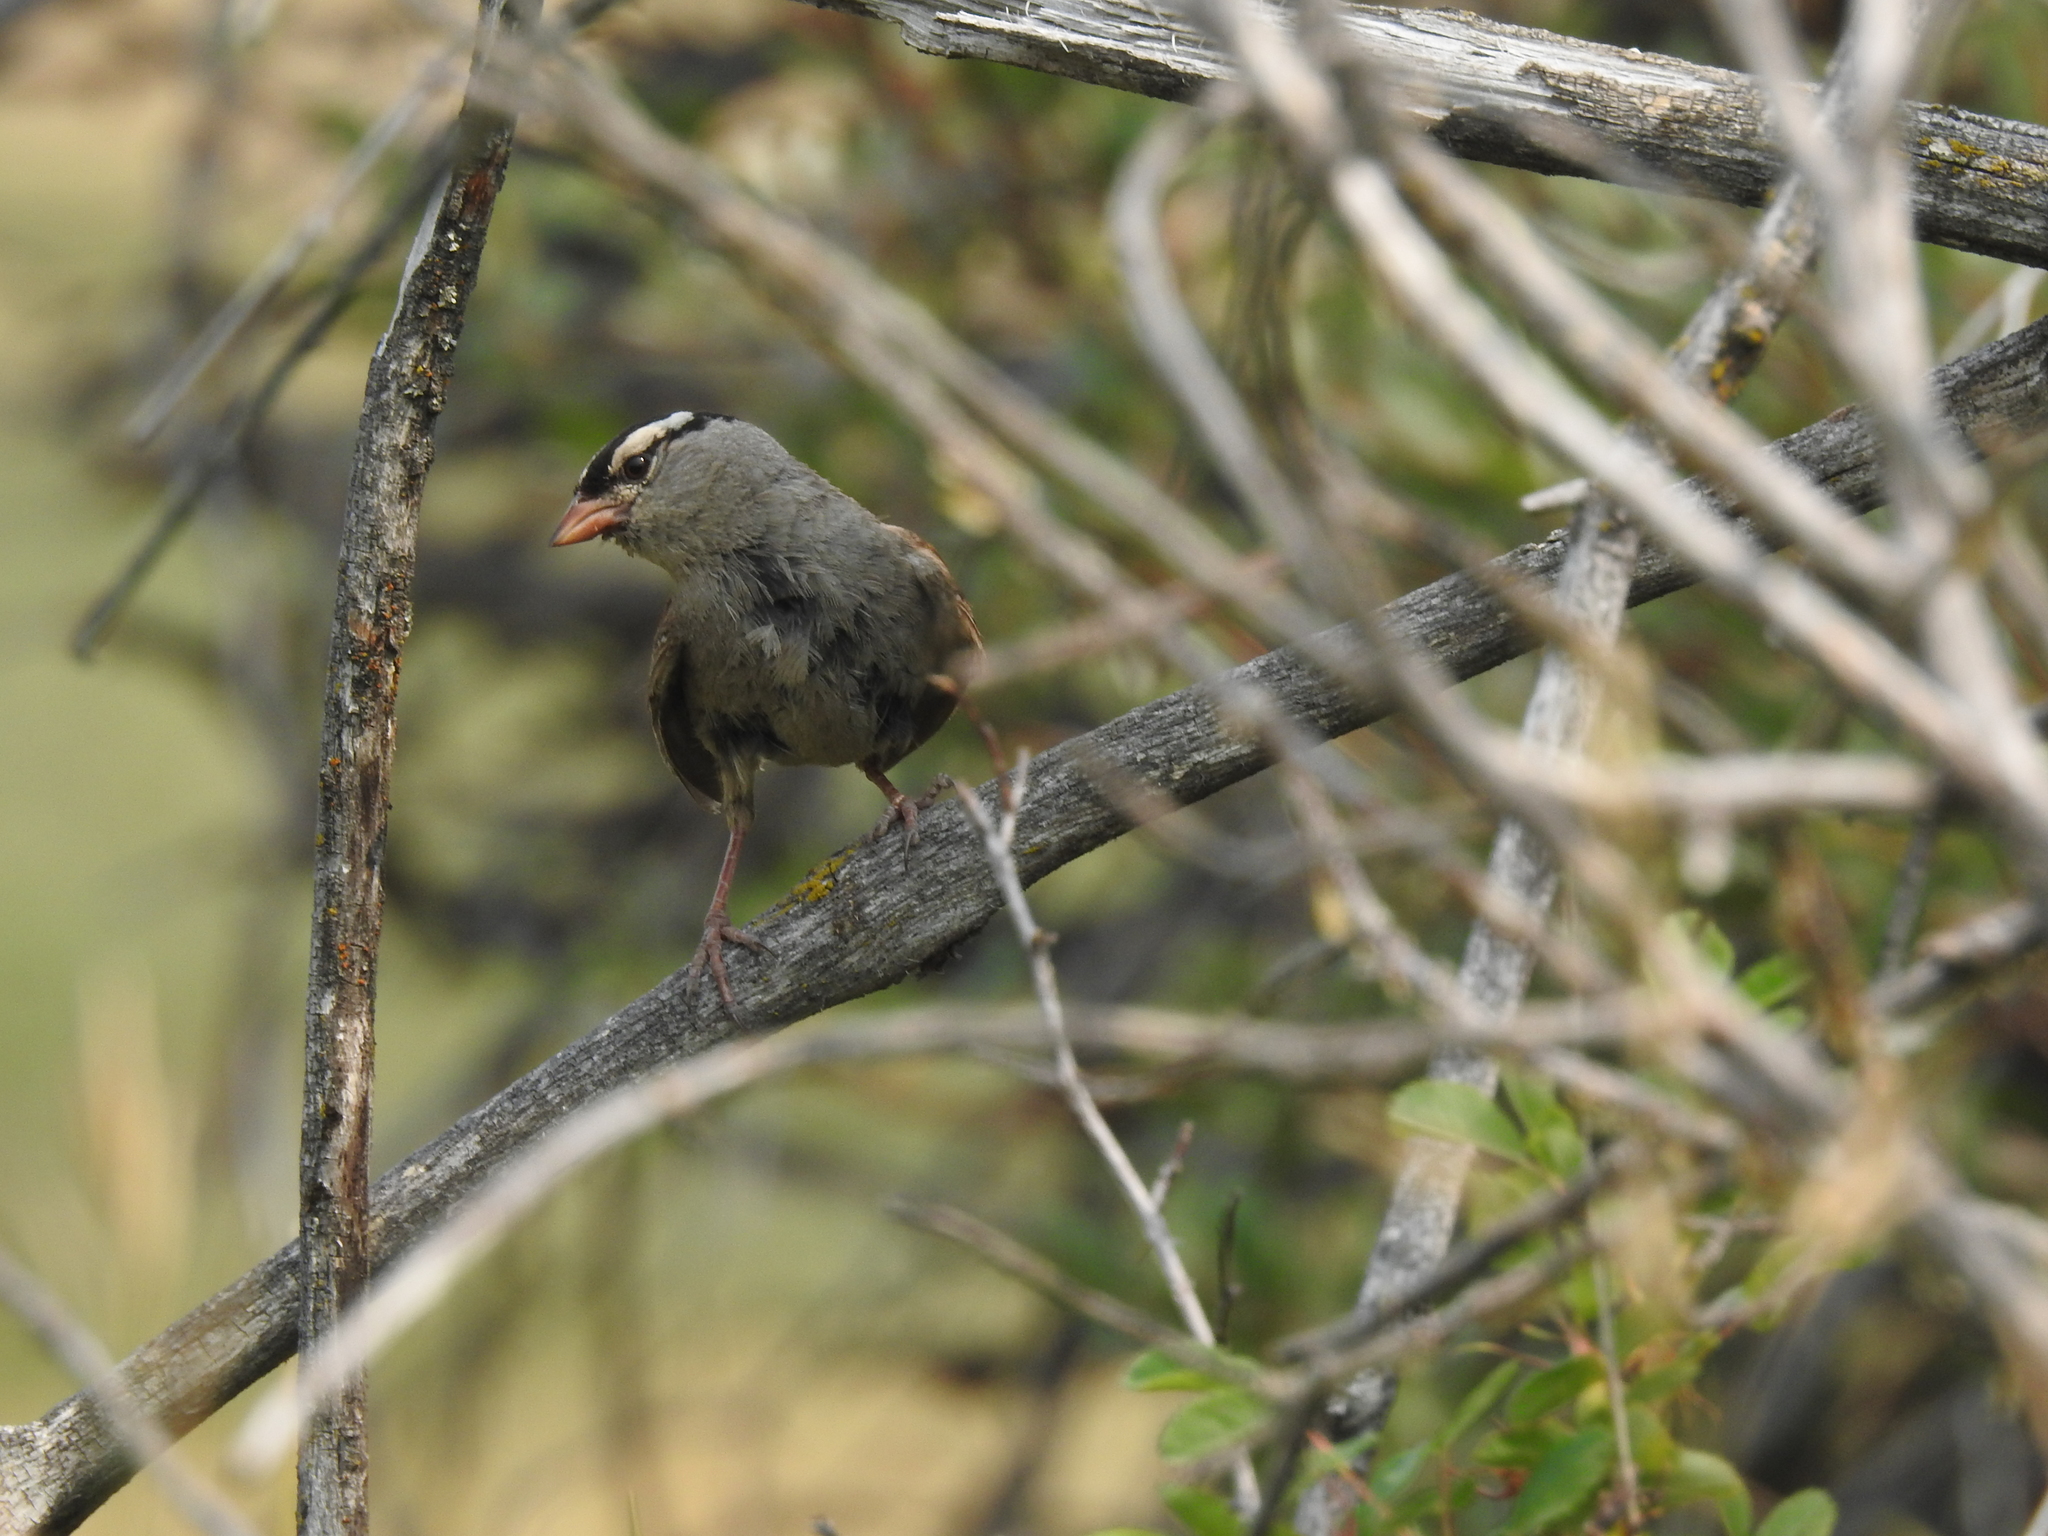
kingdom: Animalia
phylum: Chordata
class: Aves
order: Passeriformes
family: Passerellidae
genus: Zonotrichia
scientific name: Zonotrichia leucophrys
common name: White-crowned sparrow
